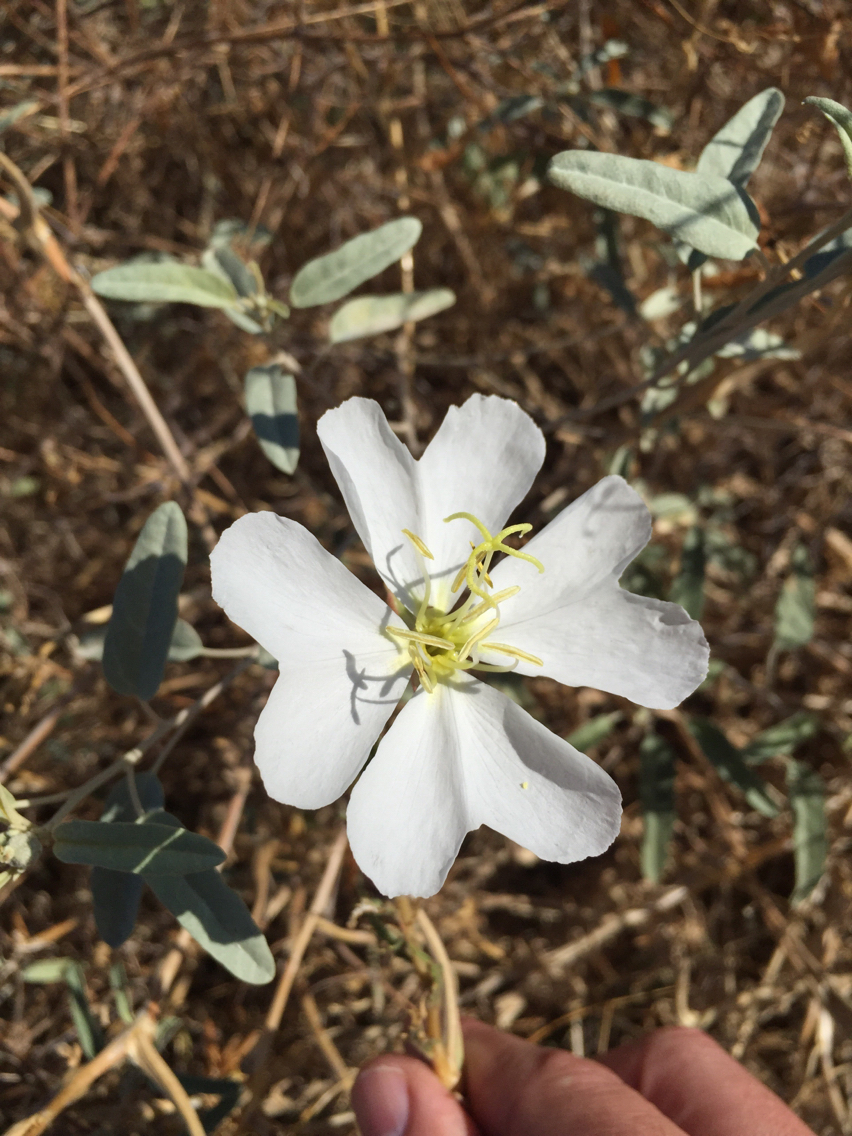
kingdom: Plantae
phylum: Tracheophyta
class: Magnoliopsida
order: Myrtales
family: Onagraceae
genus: Oenothera
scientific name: Oenothera deltoides
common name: Basket evening-primrose
